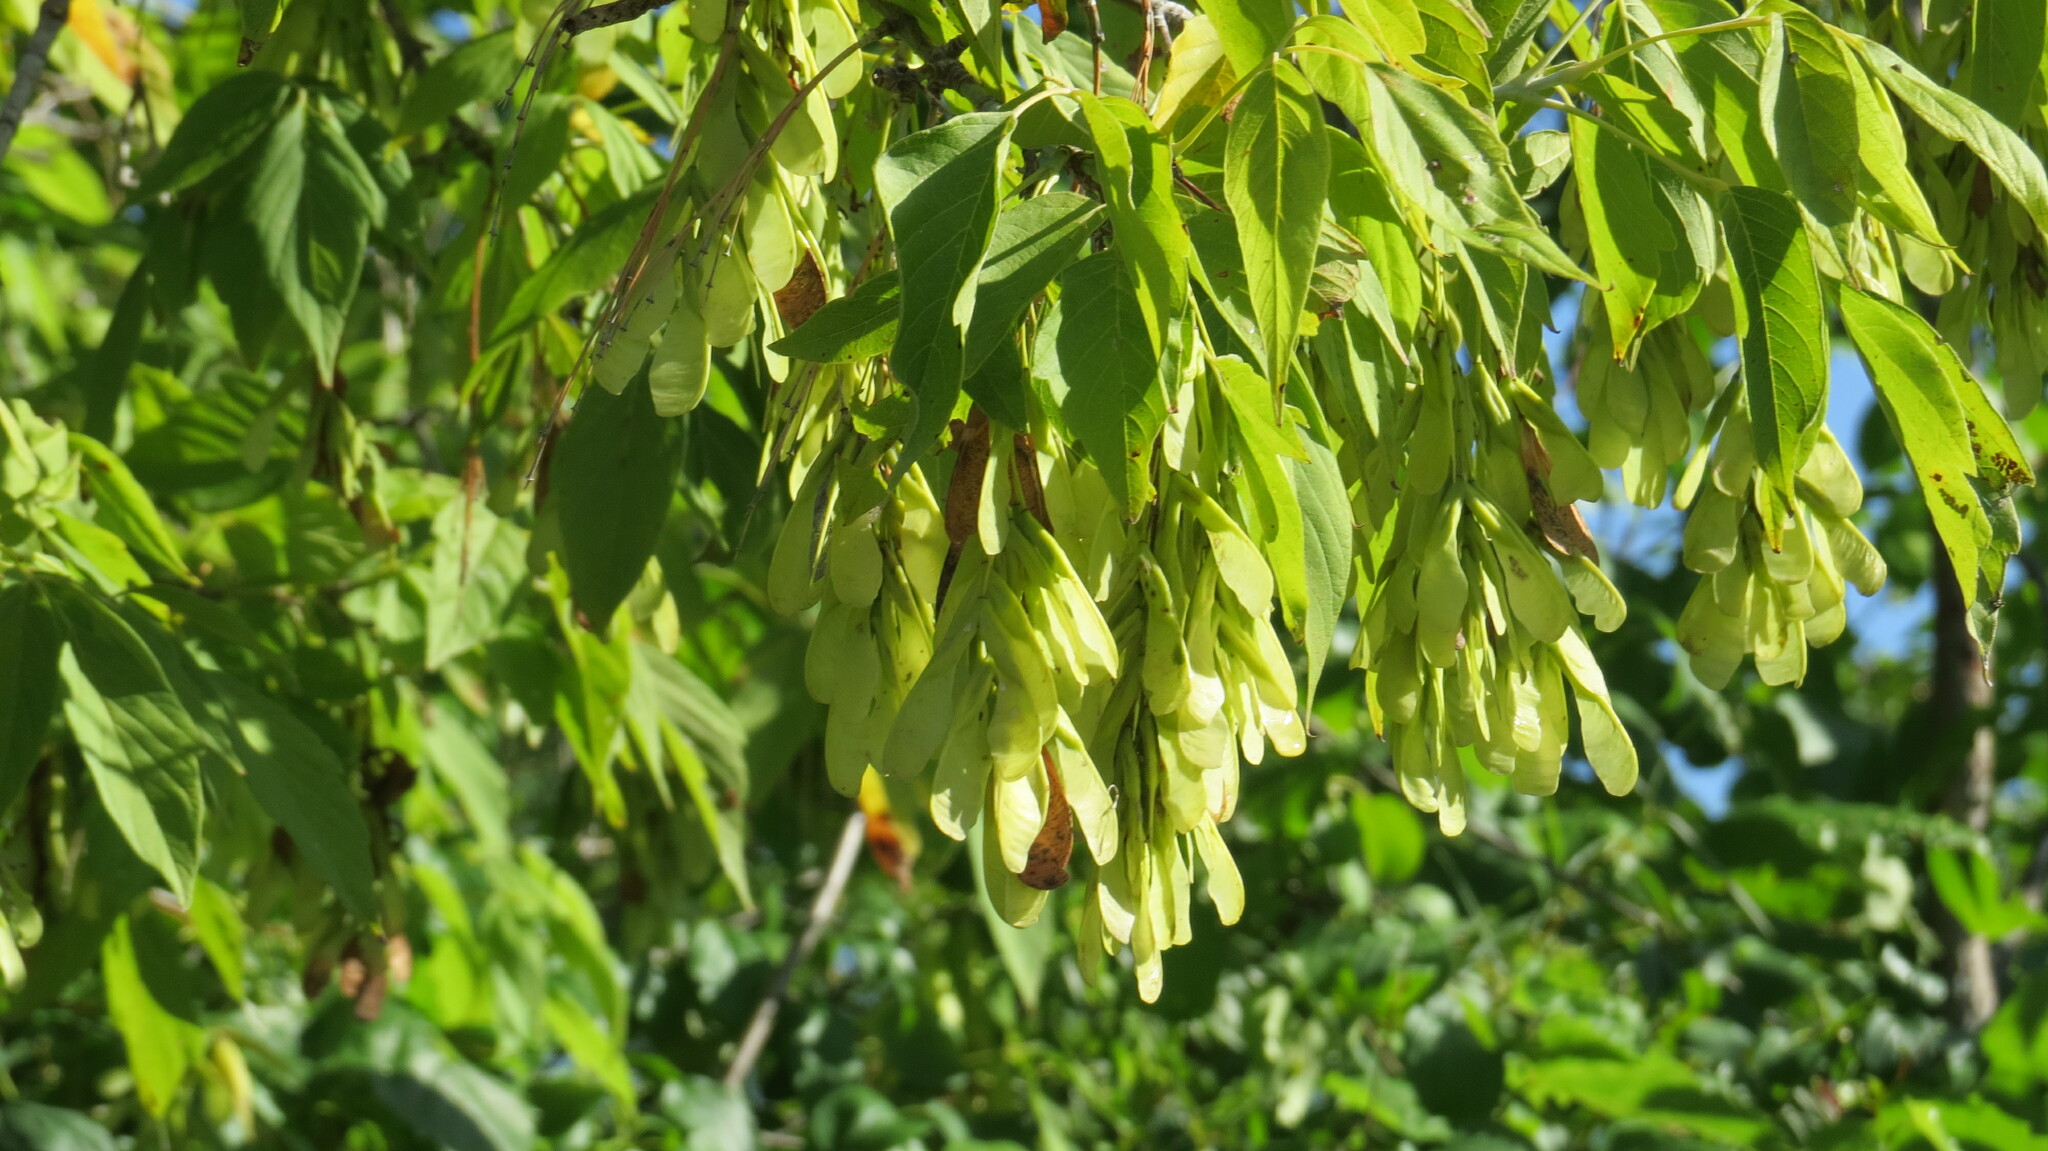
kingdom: Plantae
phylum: Tracheophyta
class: Magnoliopsida
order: Sapindales
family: Sapindaceae
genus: Acer
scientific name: Acer negundo
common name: Ashleaf maple
